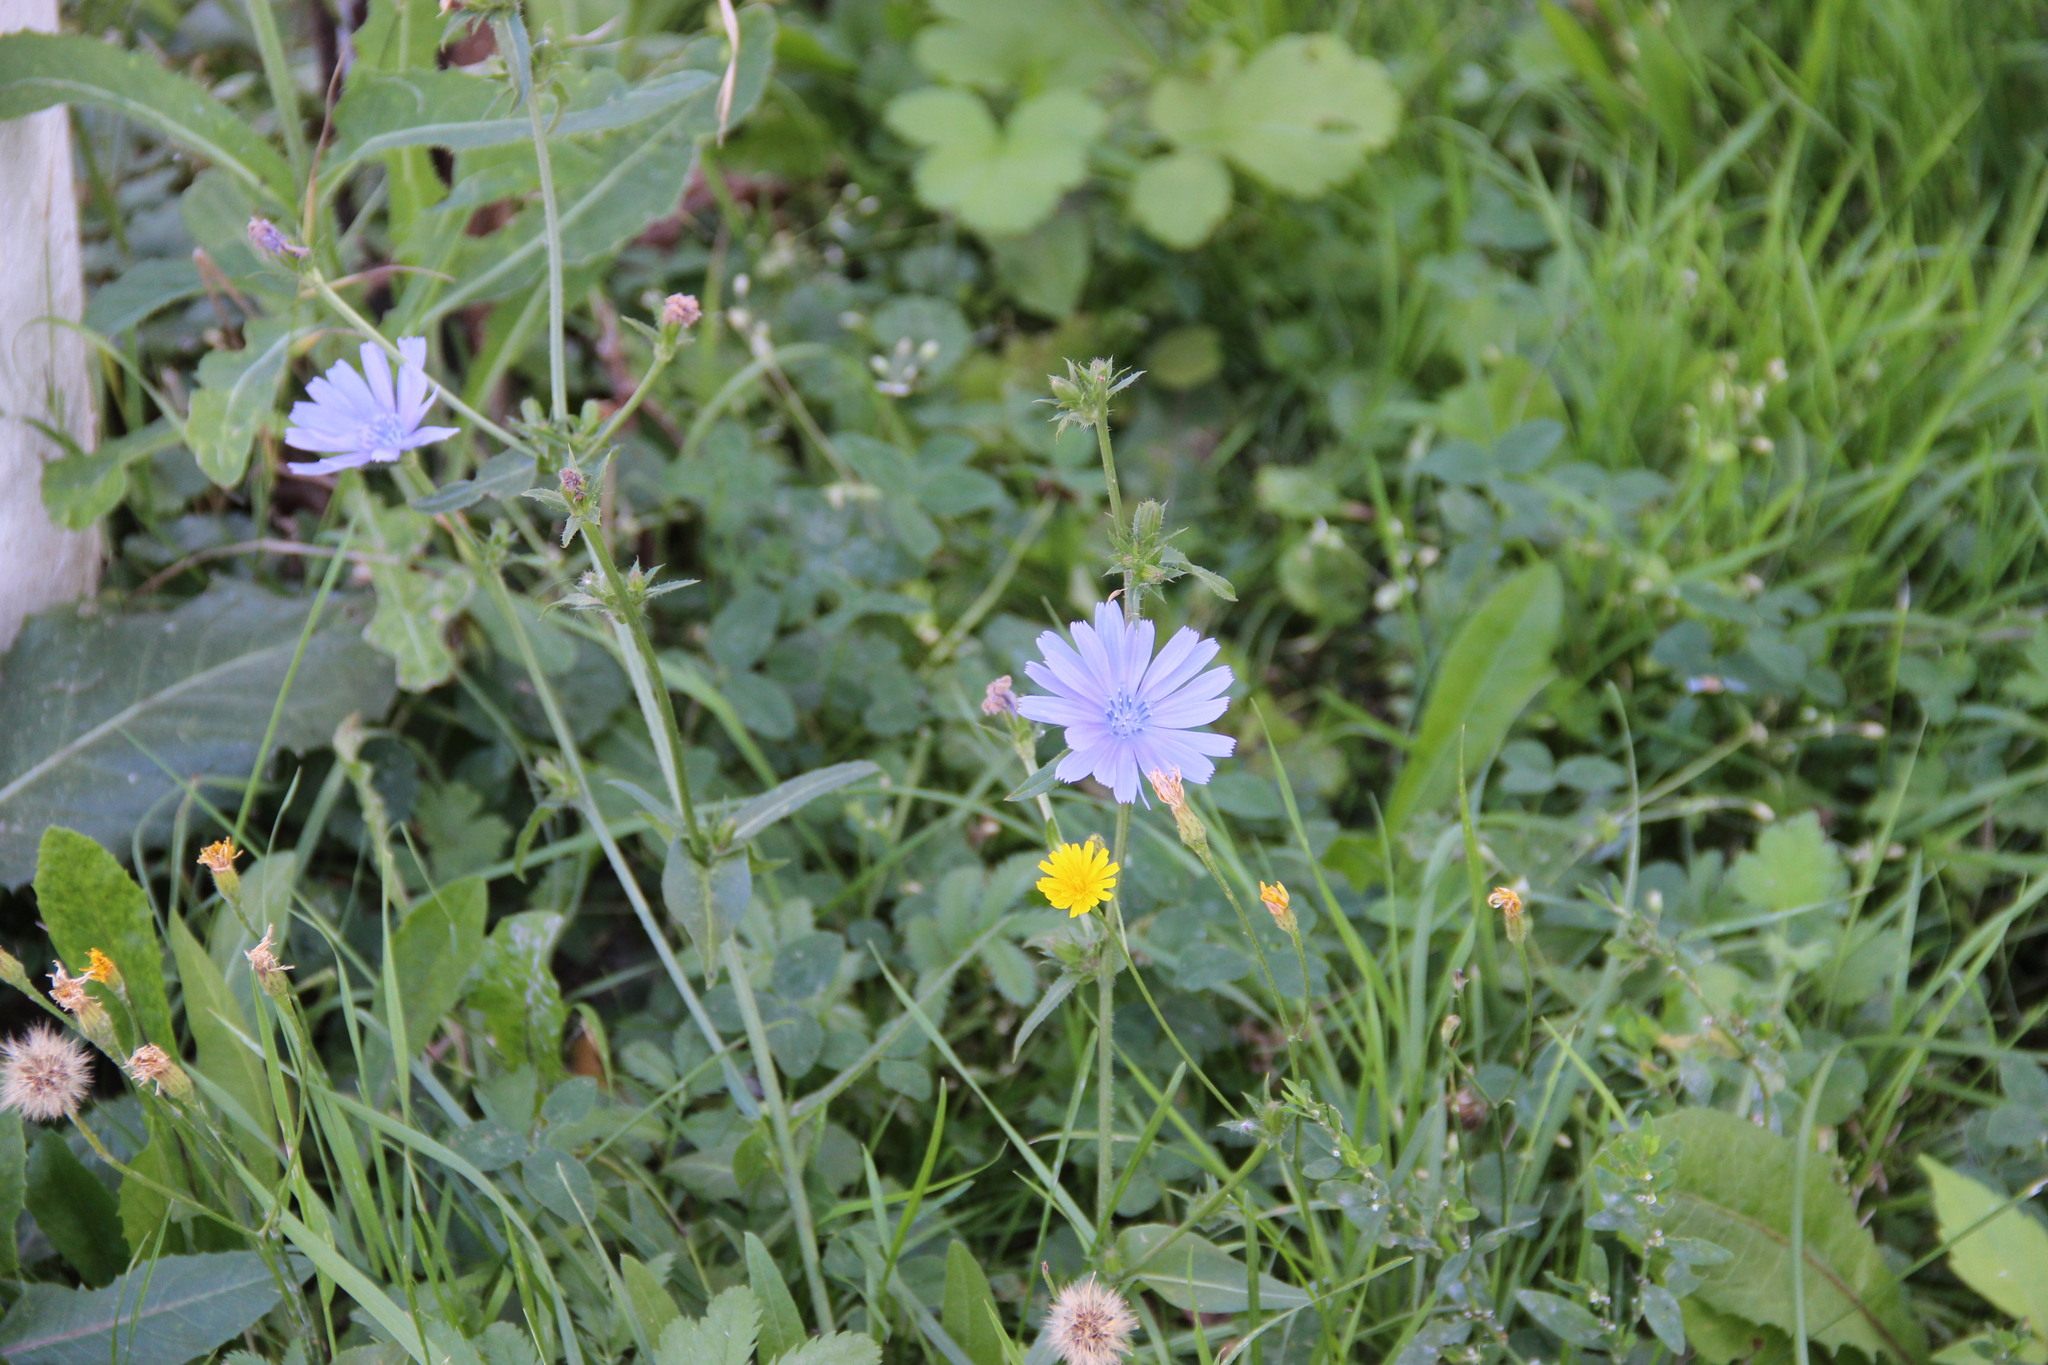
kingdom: Plantae
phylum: Tracheophyta
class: Magnoliopsida
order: Asterales
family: Asteraceae
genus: Cichorium
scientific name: Cichorium intybus
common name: Chicory
